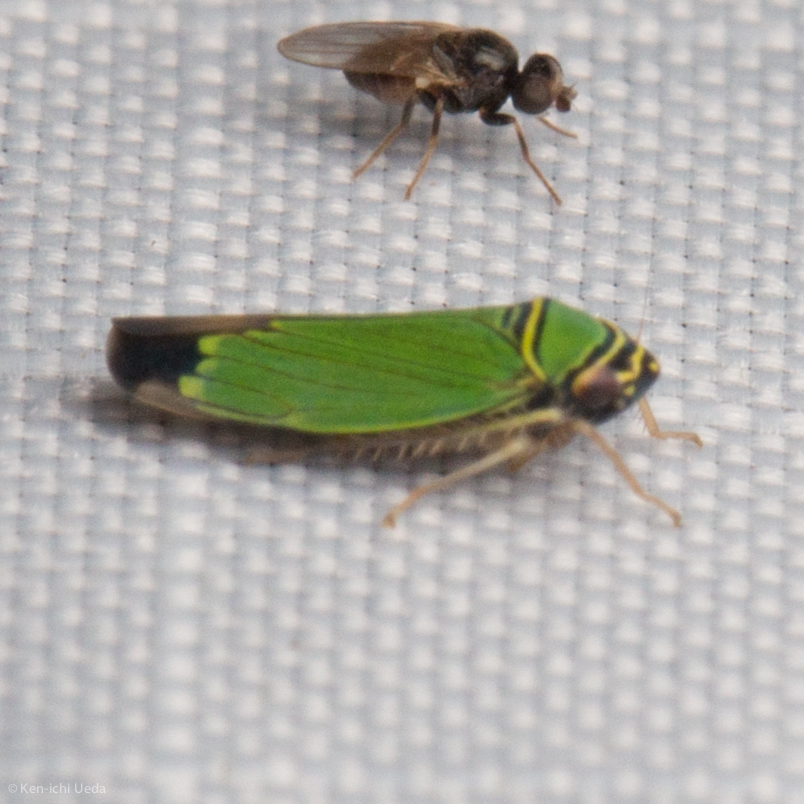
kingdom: Animalia
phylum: Arthropoda
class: Insecta
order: Hemiptera
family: Cicadellidae
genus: Tylozygus
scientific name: Tylozygus geometricus
